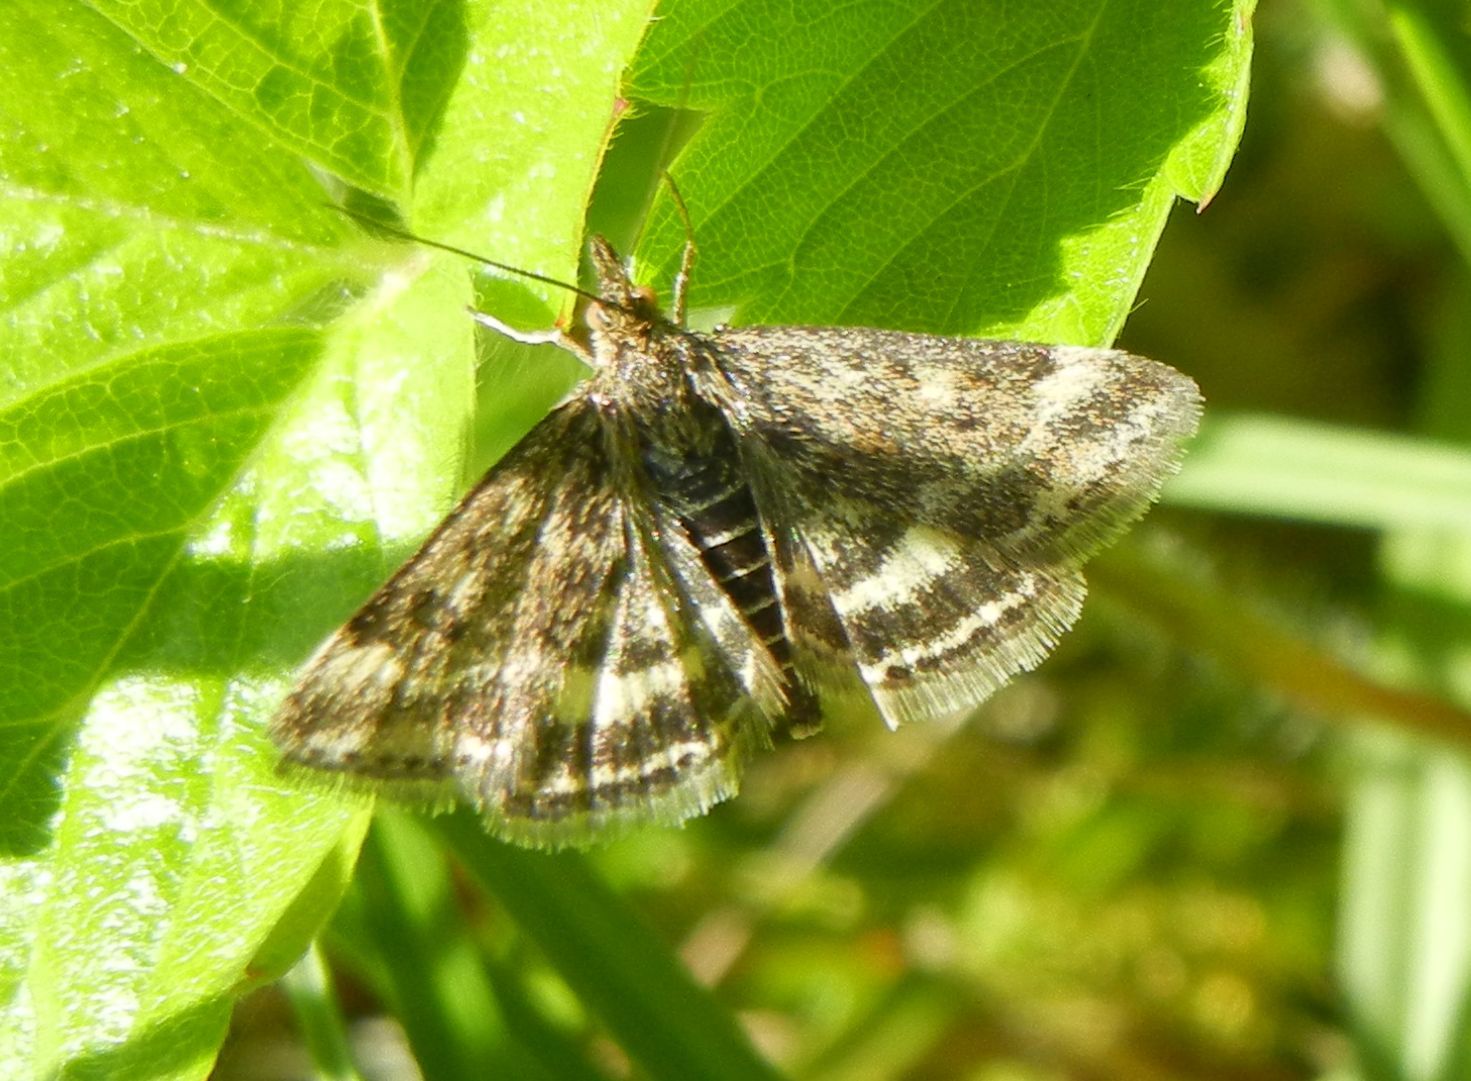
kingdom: Animalia
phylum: Arthropoda
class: Insecta
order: Lepidoptera
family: Crambidae
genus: Pyrausta
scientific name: Pyrausta despicata
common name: Straw-barred pearl
